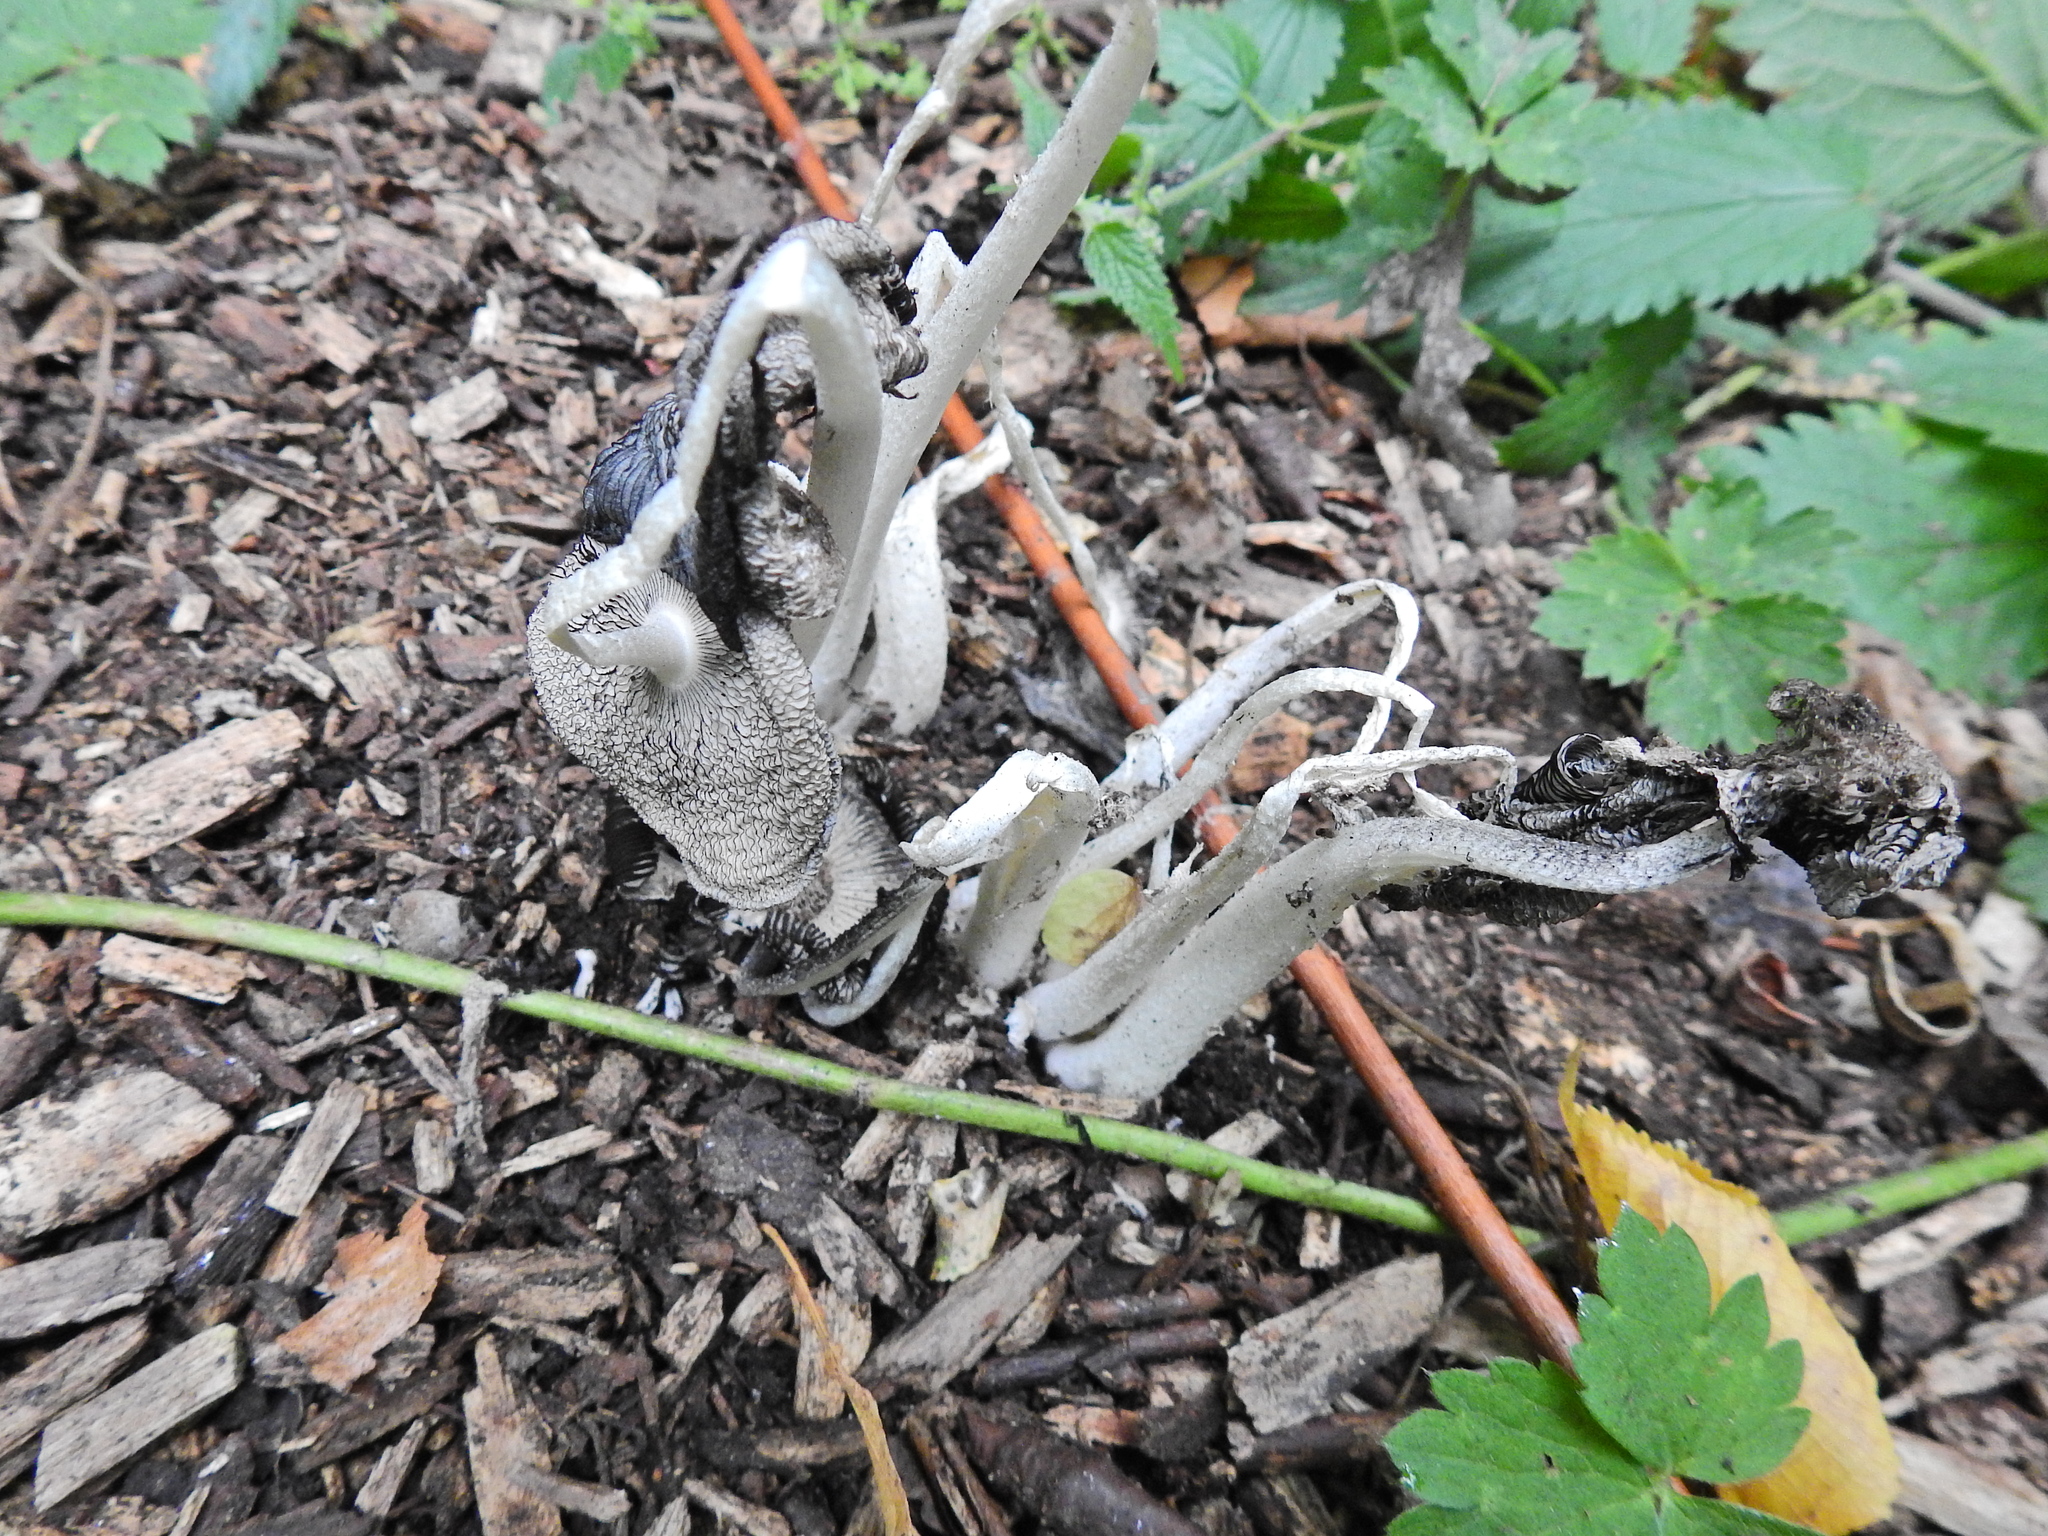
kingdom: Fungi
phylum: Basidiomycota
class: Agaricomycetes
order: Agaricales
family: Psathyrellaceae
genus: Coprinopsis
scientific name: Coprinopsis
